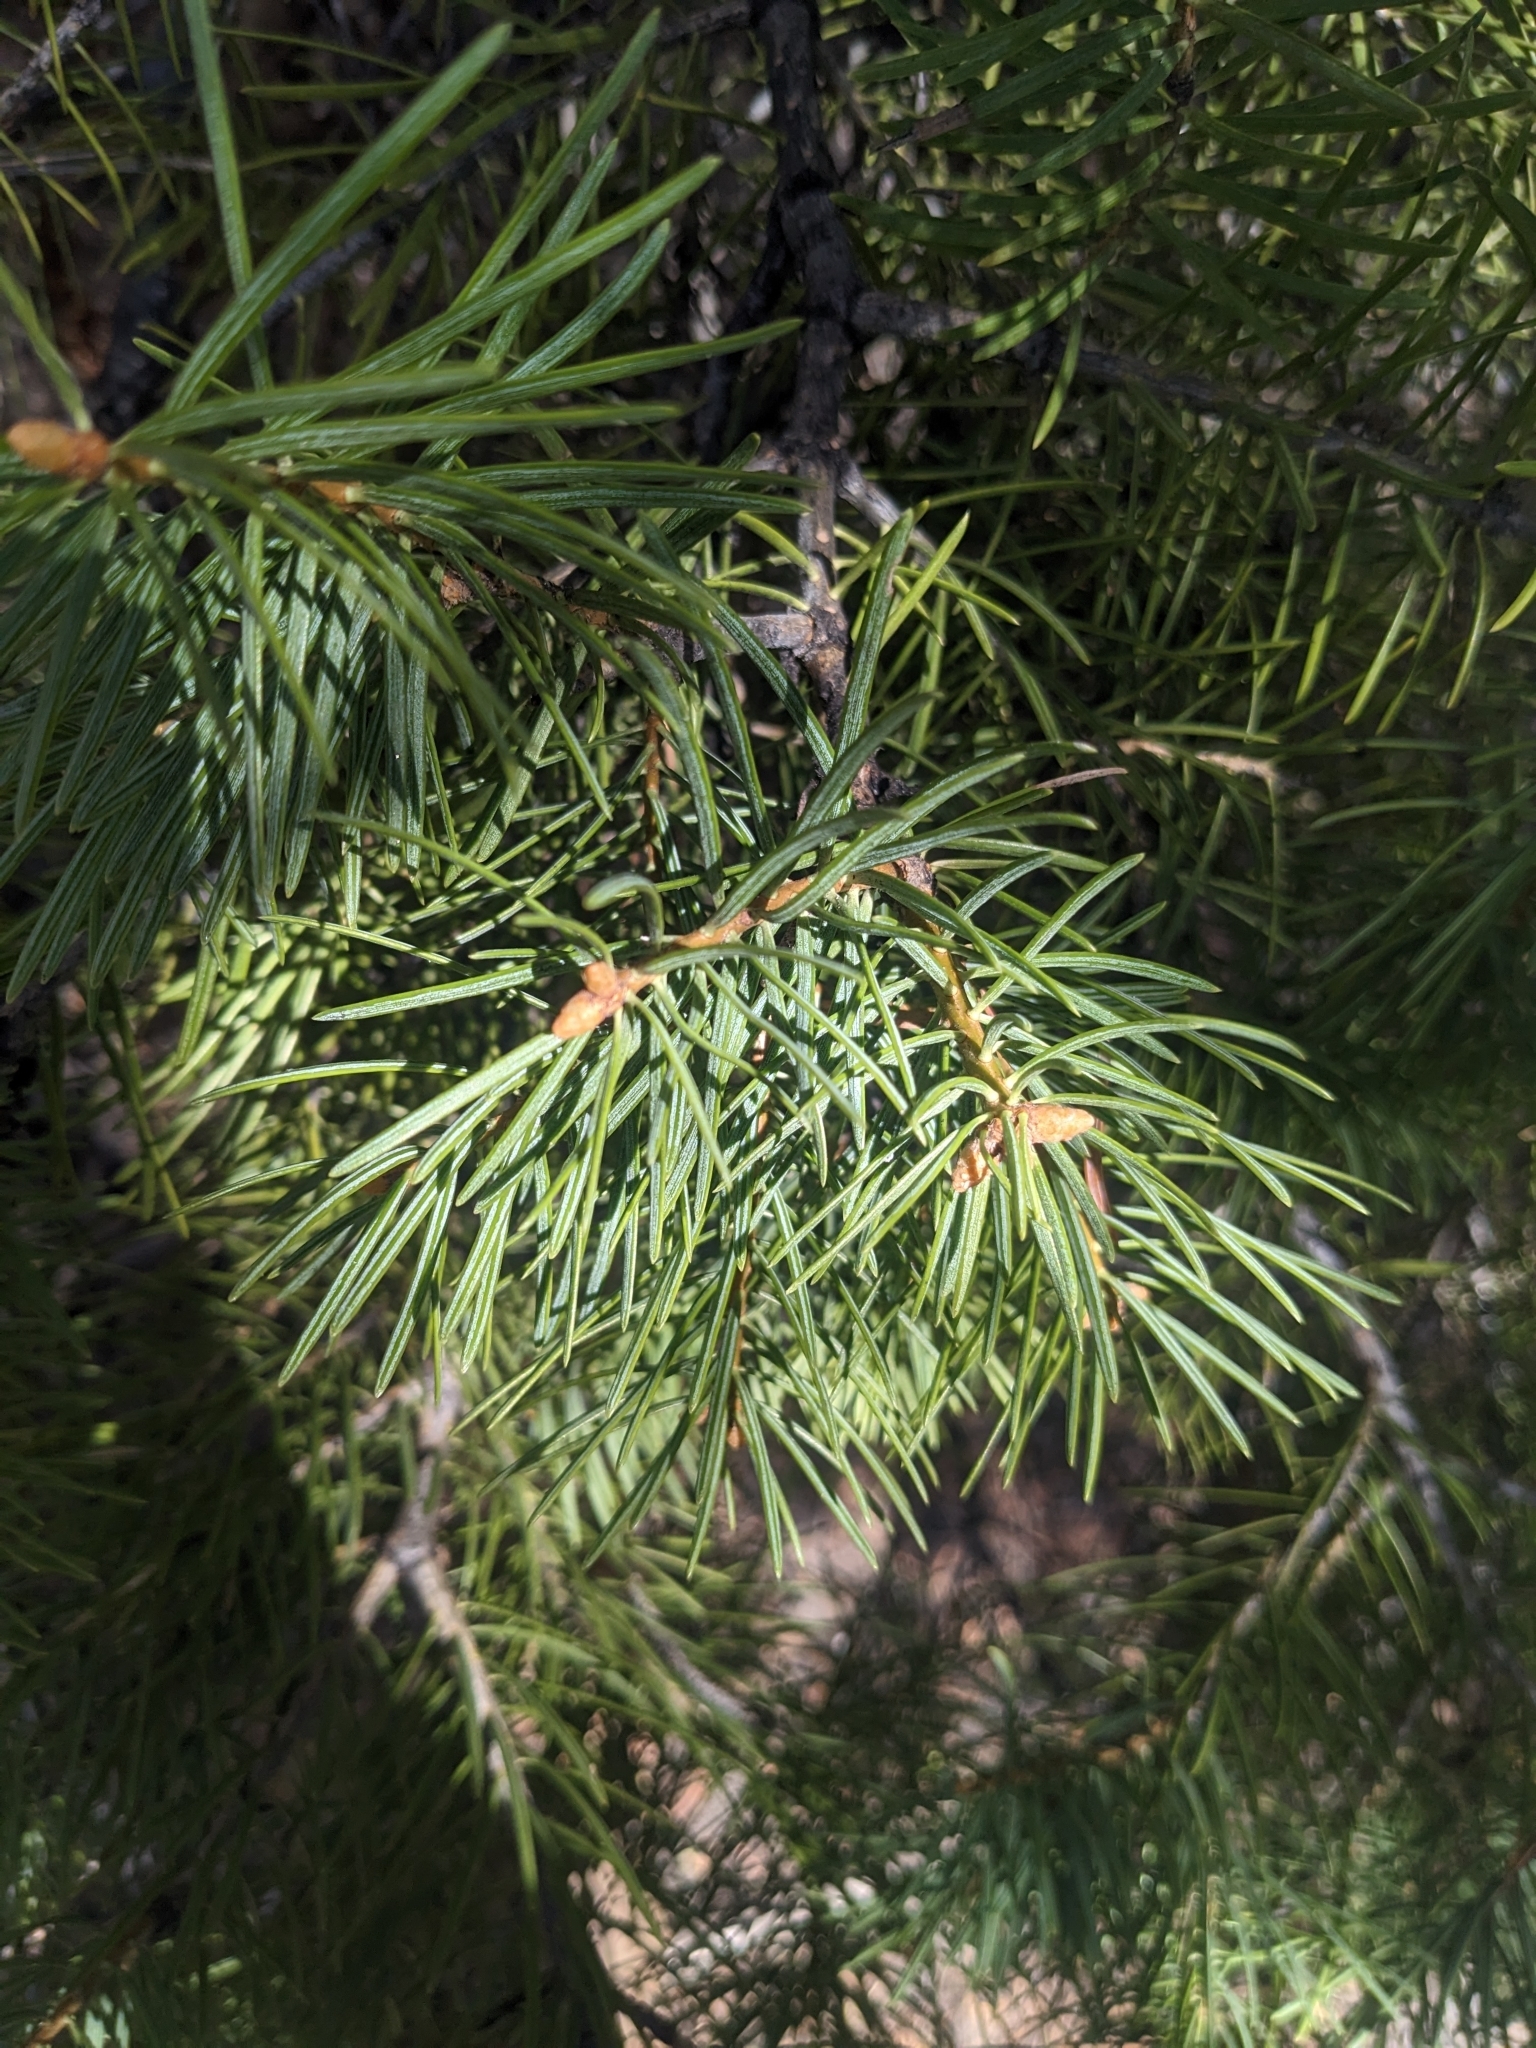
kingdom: Plantae
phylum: Tracheophyta
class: Pinopsida
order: Pinales
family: Pinaceae
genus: Abies
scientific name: Abies concolor
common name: Colorado fir
